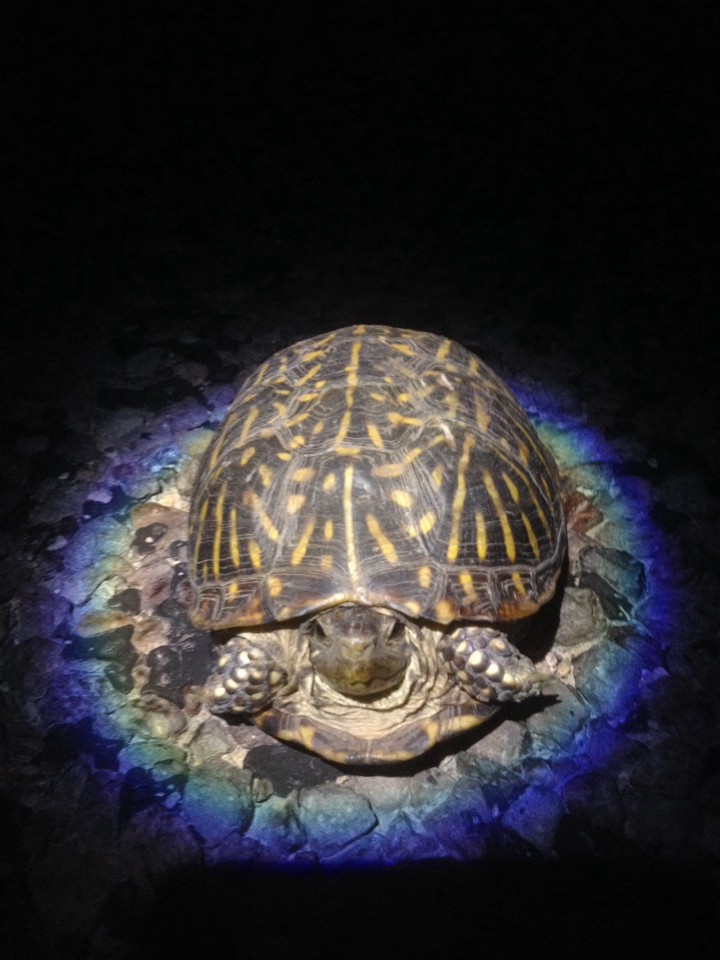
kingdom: Animalia
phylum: Chordata
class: Testudines
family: Emydidae
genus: Terrapene
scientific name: Terrapene ornata
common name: Western box turtle
